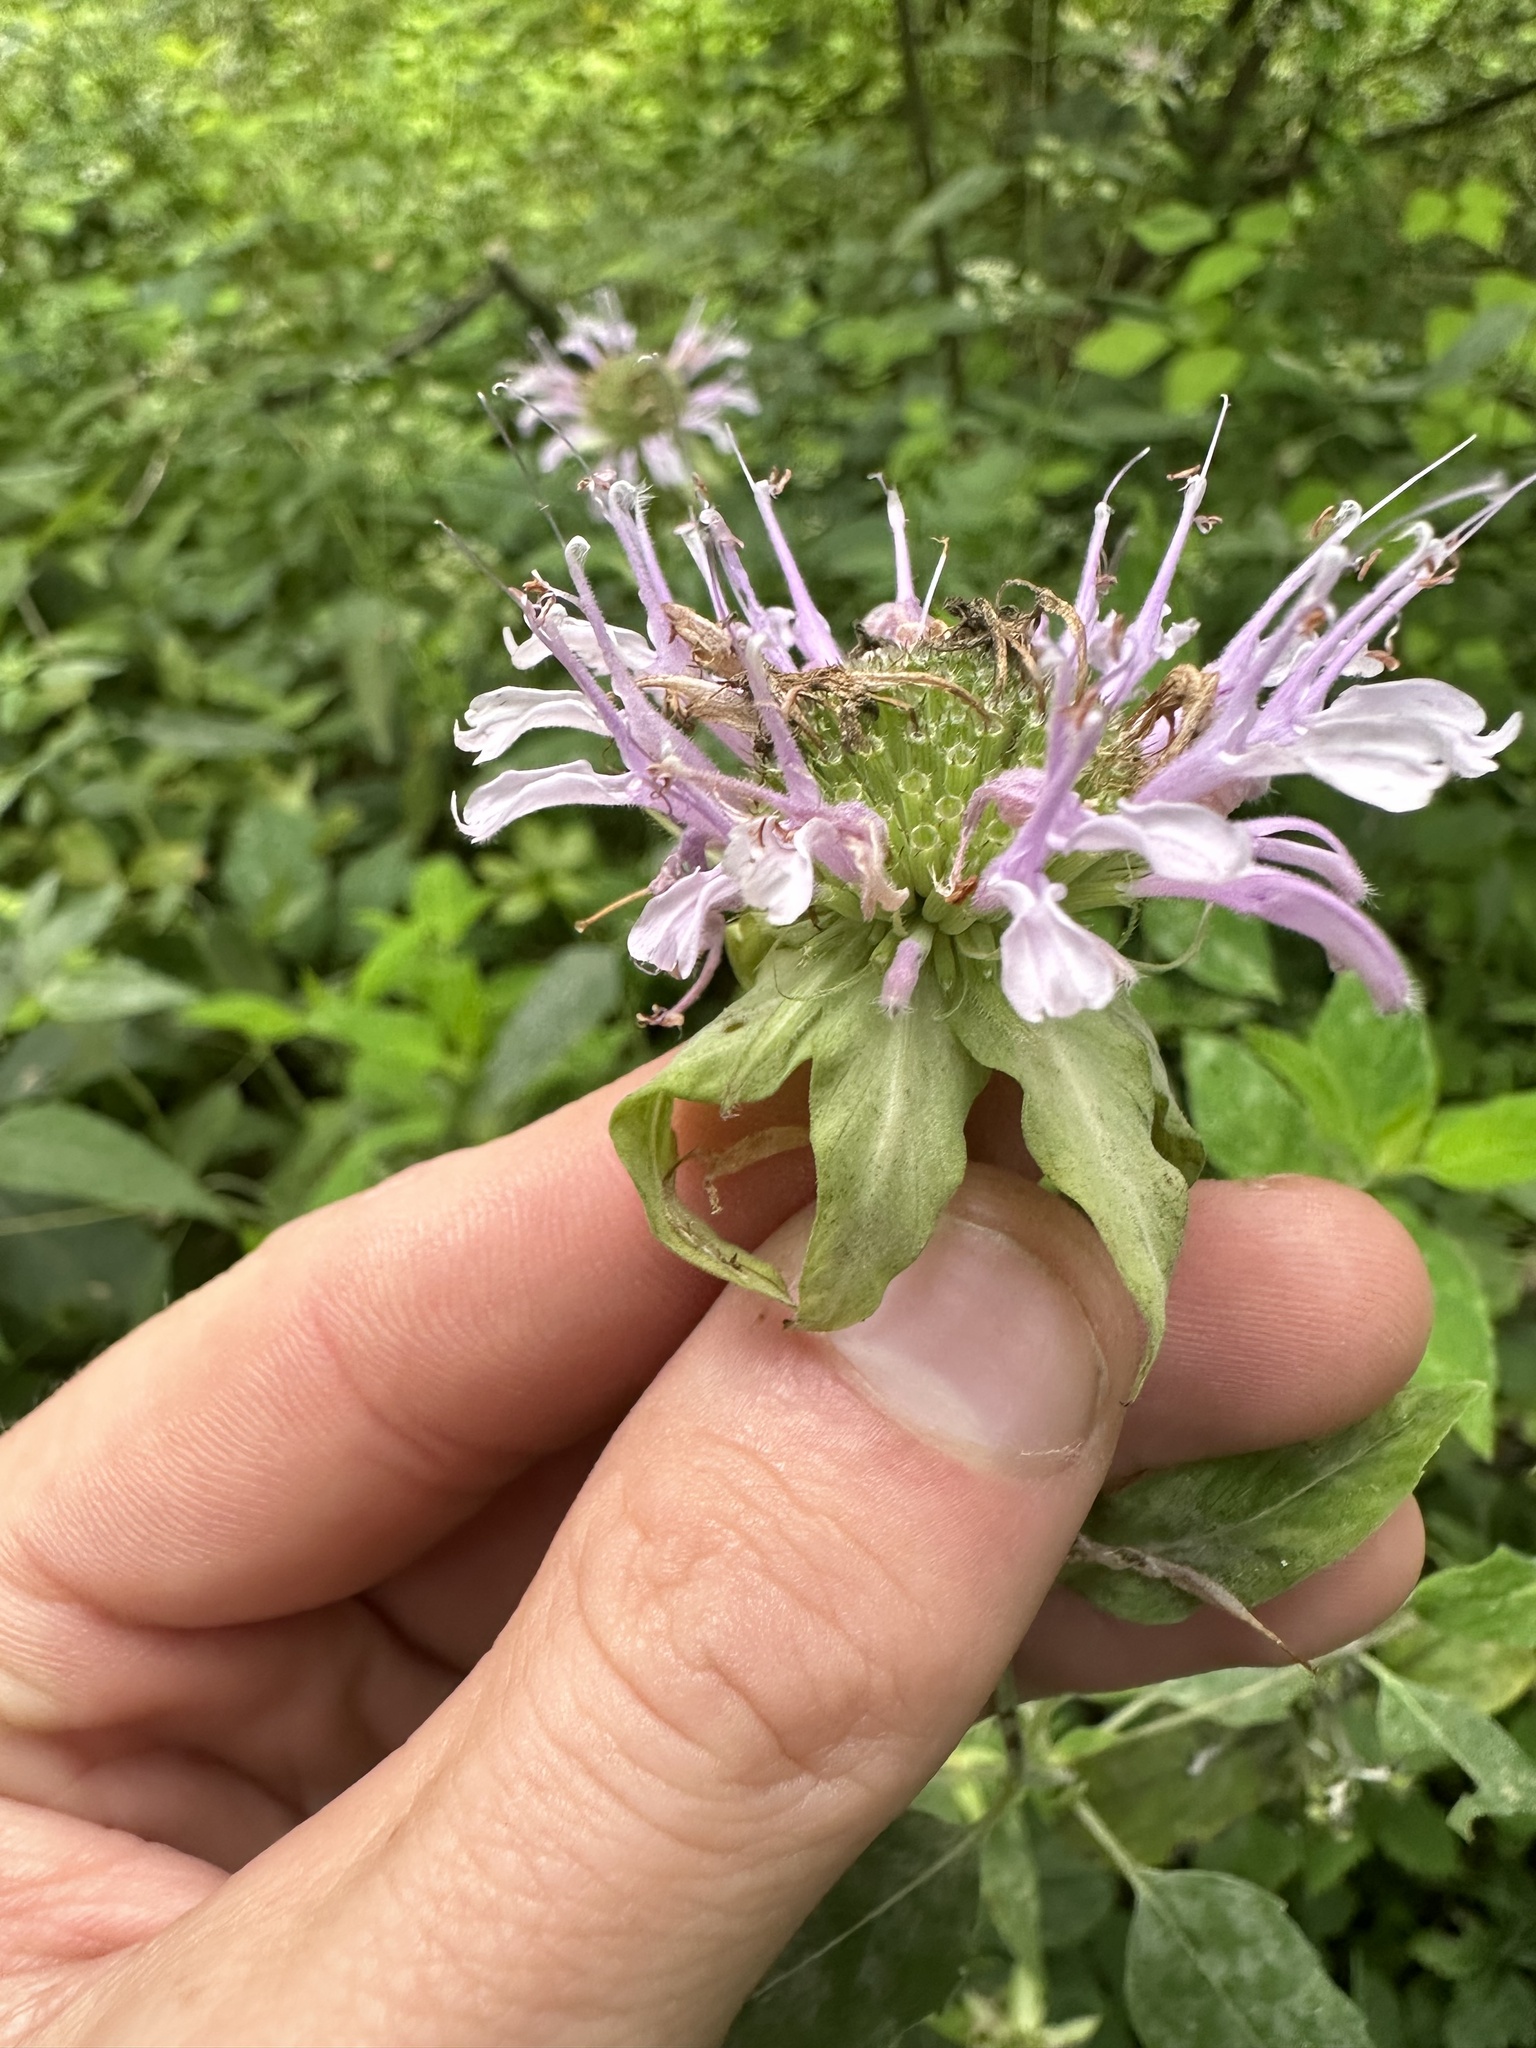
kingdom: Plantae
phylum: Tracheophyta
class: Magnoliopsida
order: Lamiales
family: Lamiaceae
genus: Monarda
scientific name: Monarda fistulosa
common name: Purple beebalm
